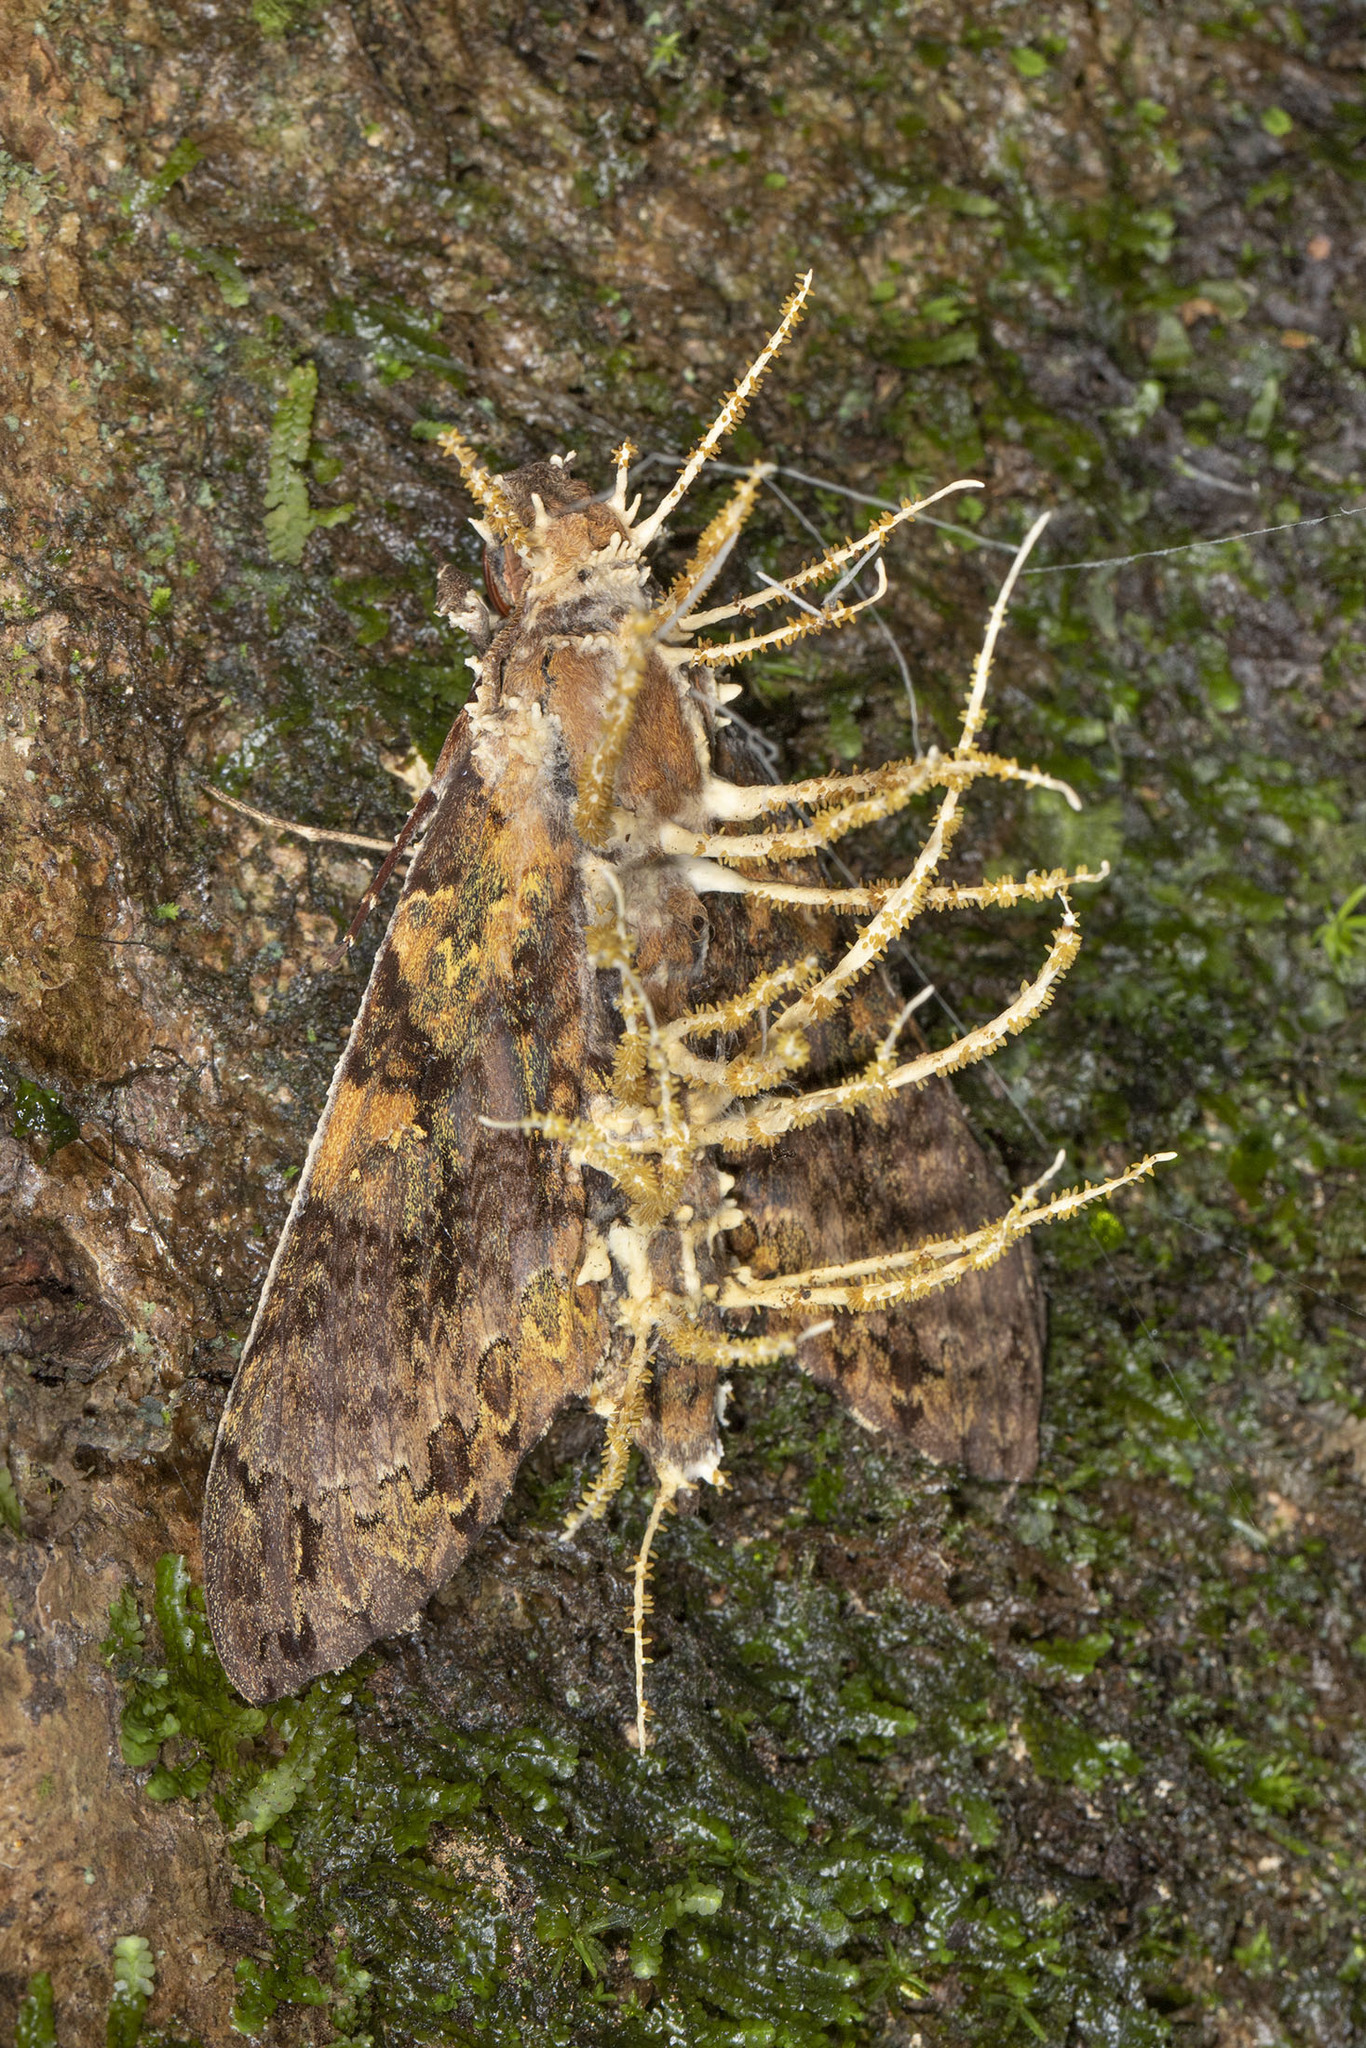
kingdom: Animalia
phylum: Arthropoda
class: Insecta
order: Lepidoptera
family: Sphingidae
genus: Cocytius
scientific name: Cocytius beelzebuth
